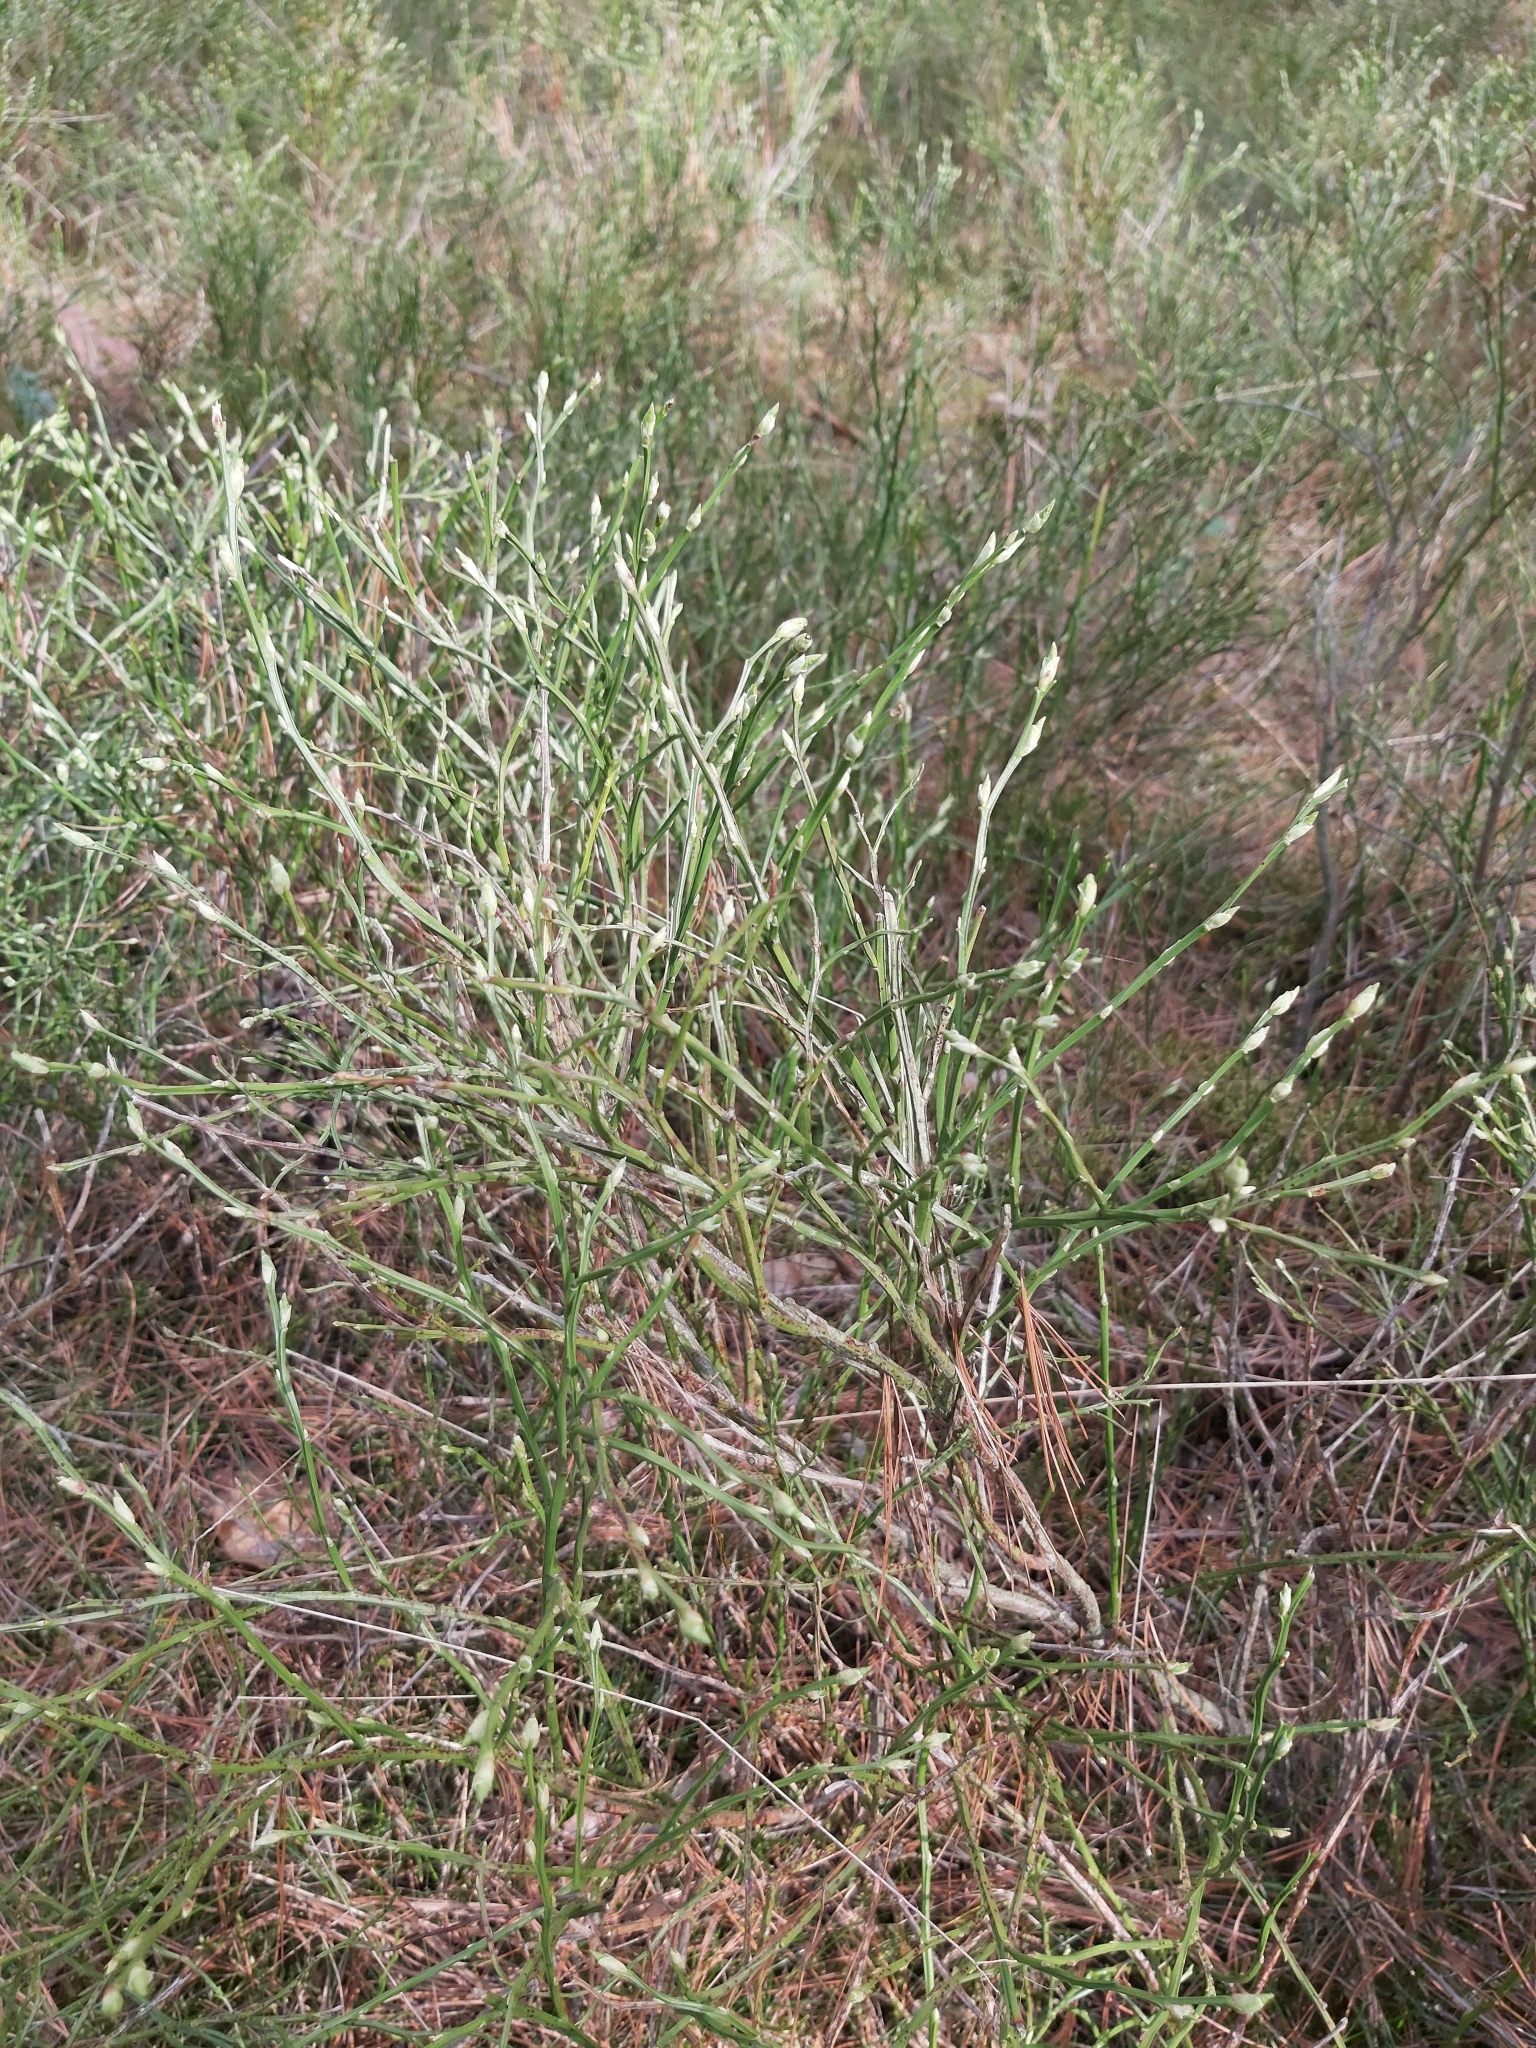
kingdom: Plantae
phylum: Tracheophyta
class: Magnoliopsida
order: Ericales
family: Ericaceae
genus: Vaccinium
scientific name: Vaccinium myrtillus
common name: Bilberry
